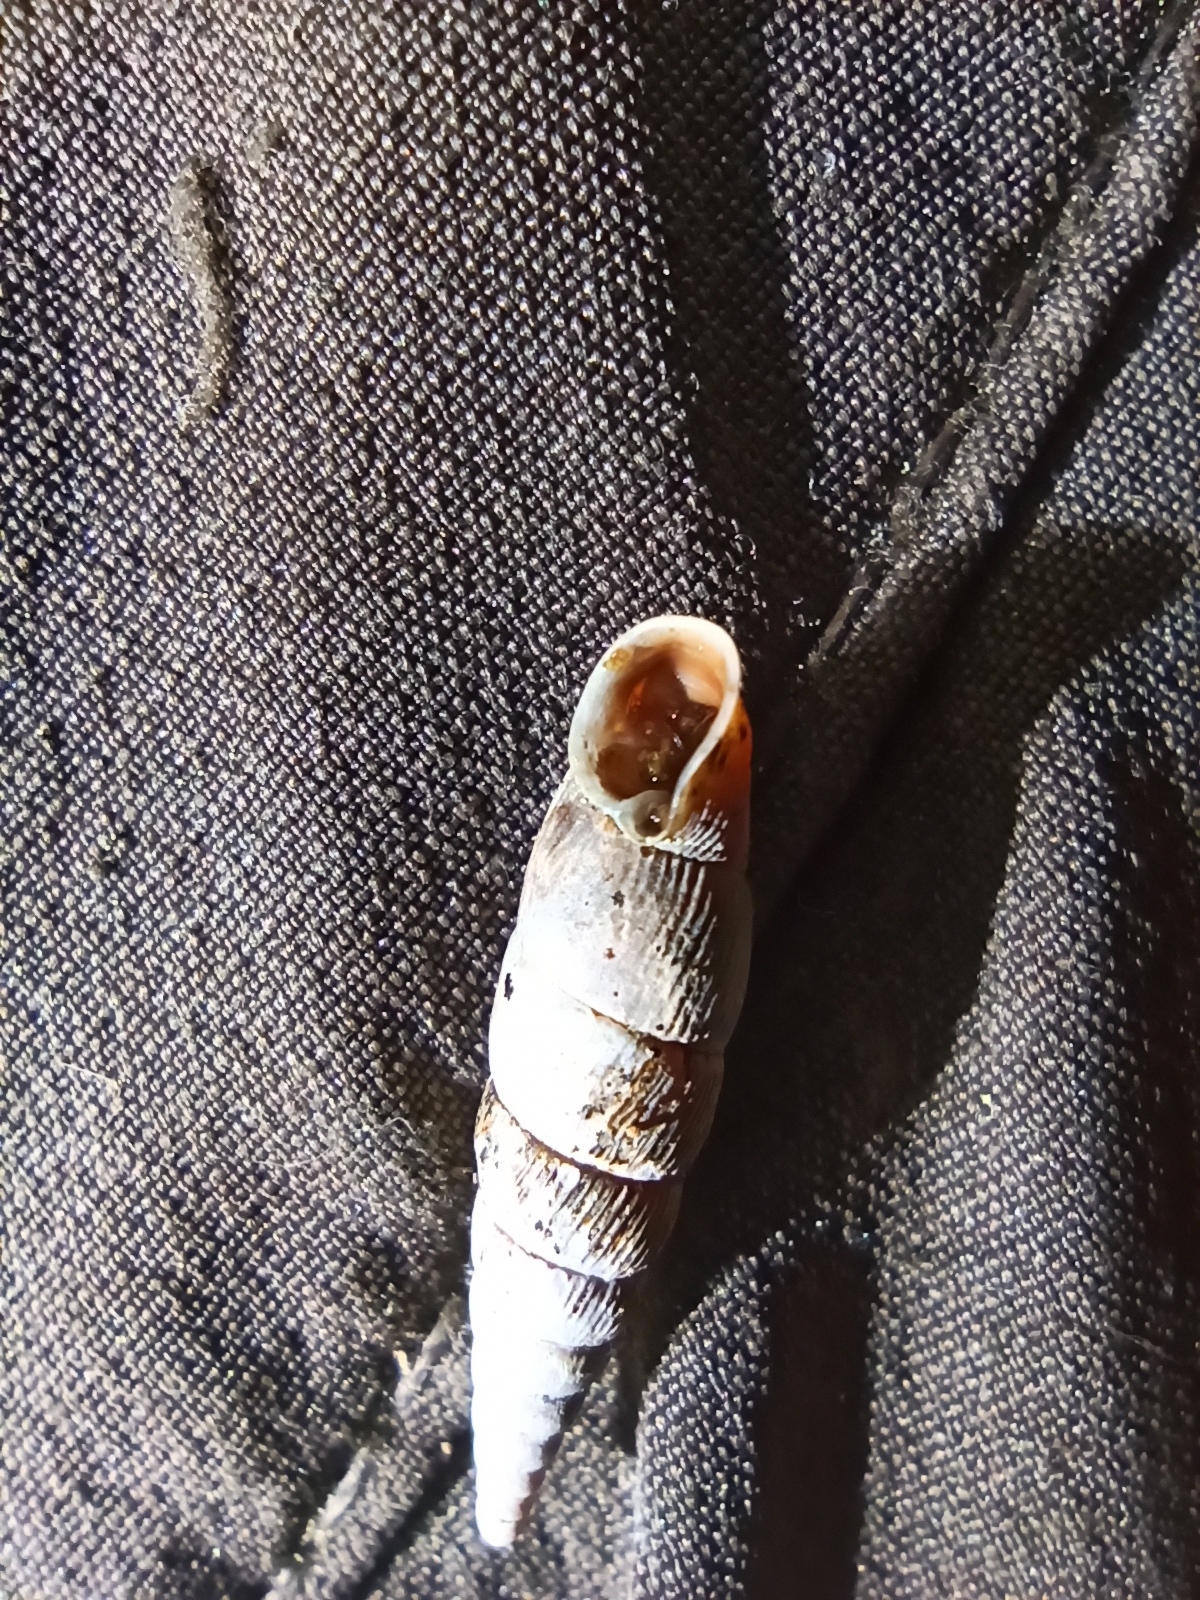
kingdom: Animalia
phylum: Mollusca
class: Gastropoda
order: Stylommatophora
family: Clausiliidae
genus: Macrogastra
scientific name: Macrogastra ventricosa
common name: Ventricose door snail
